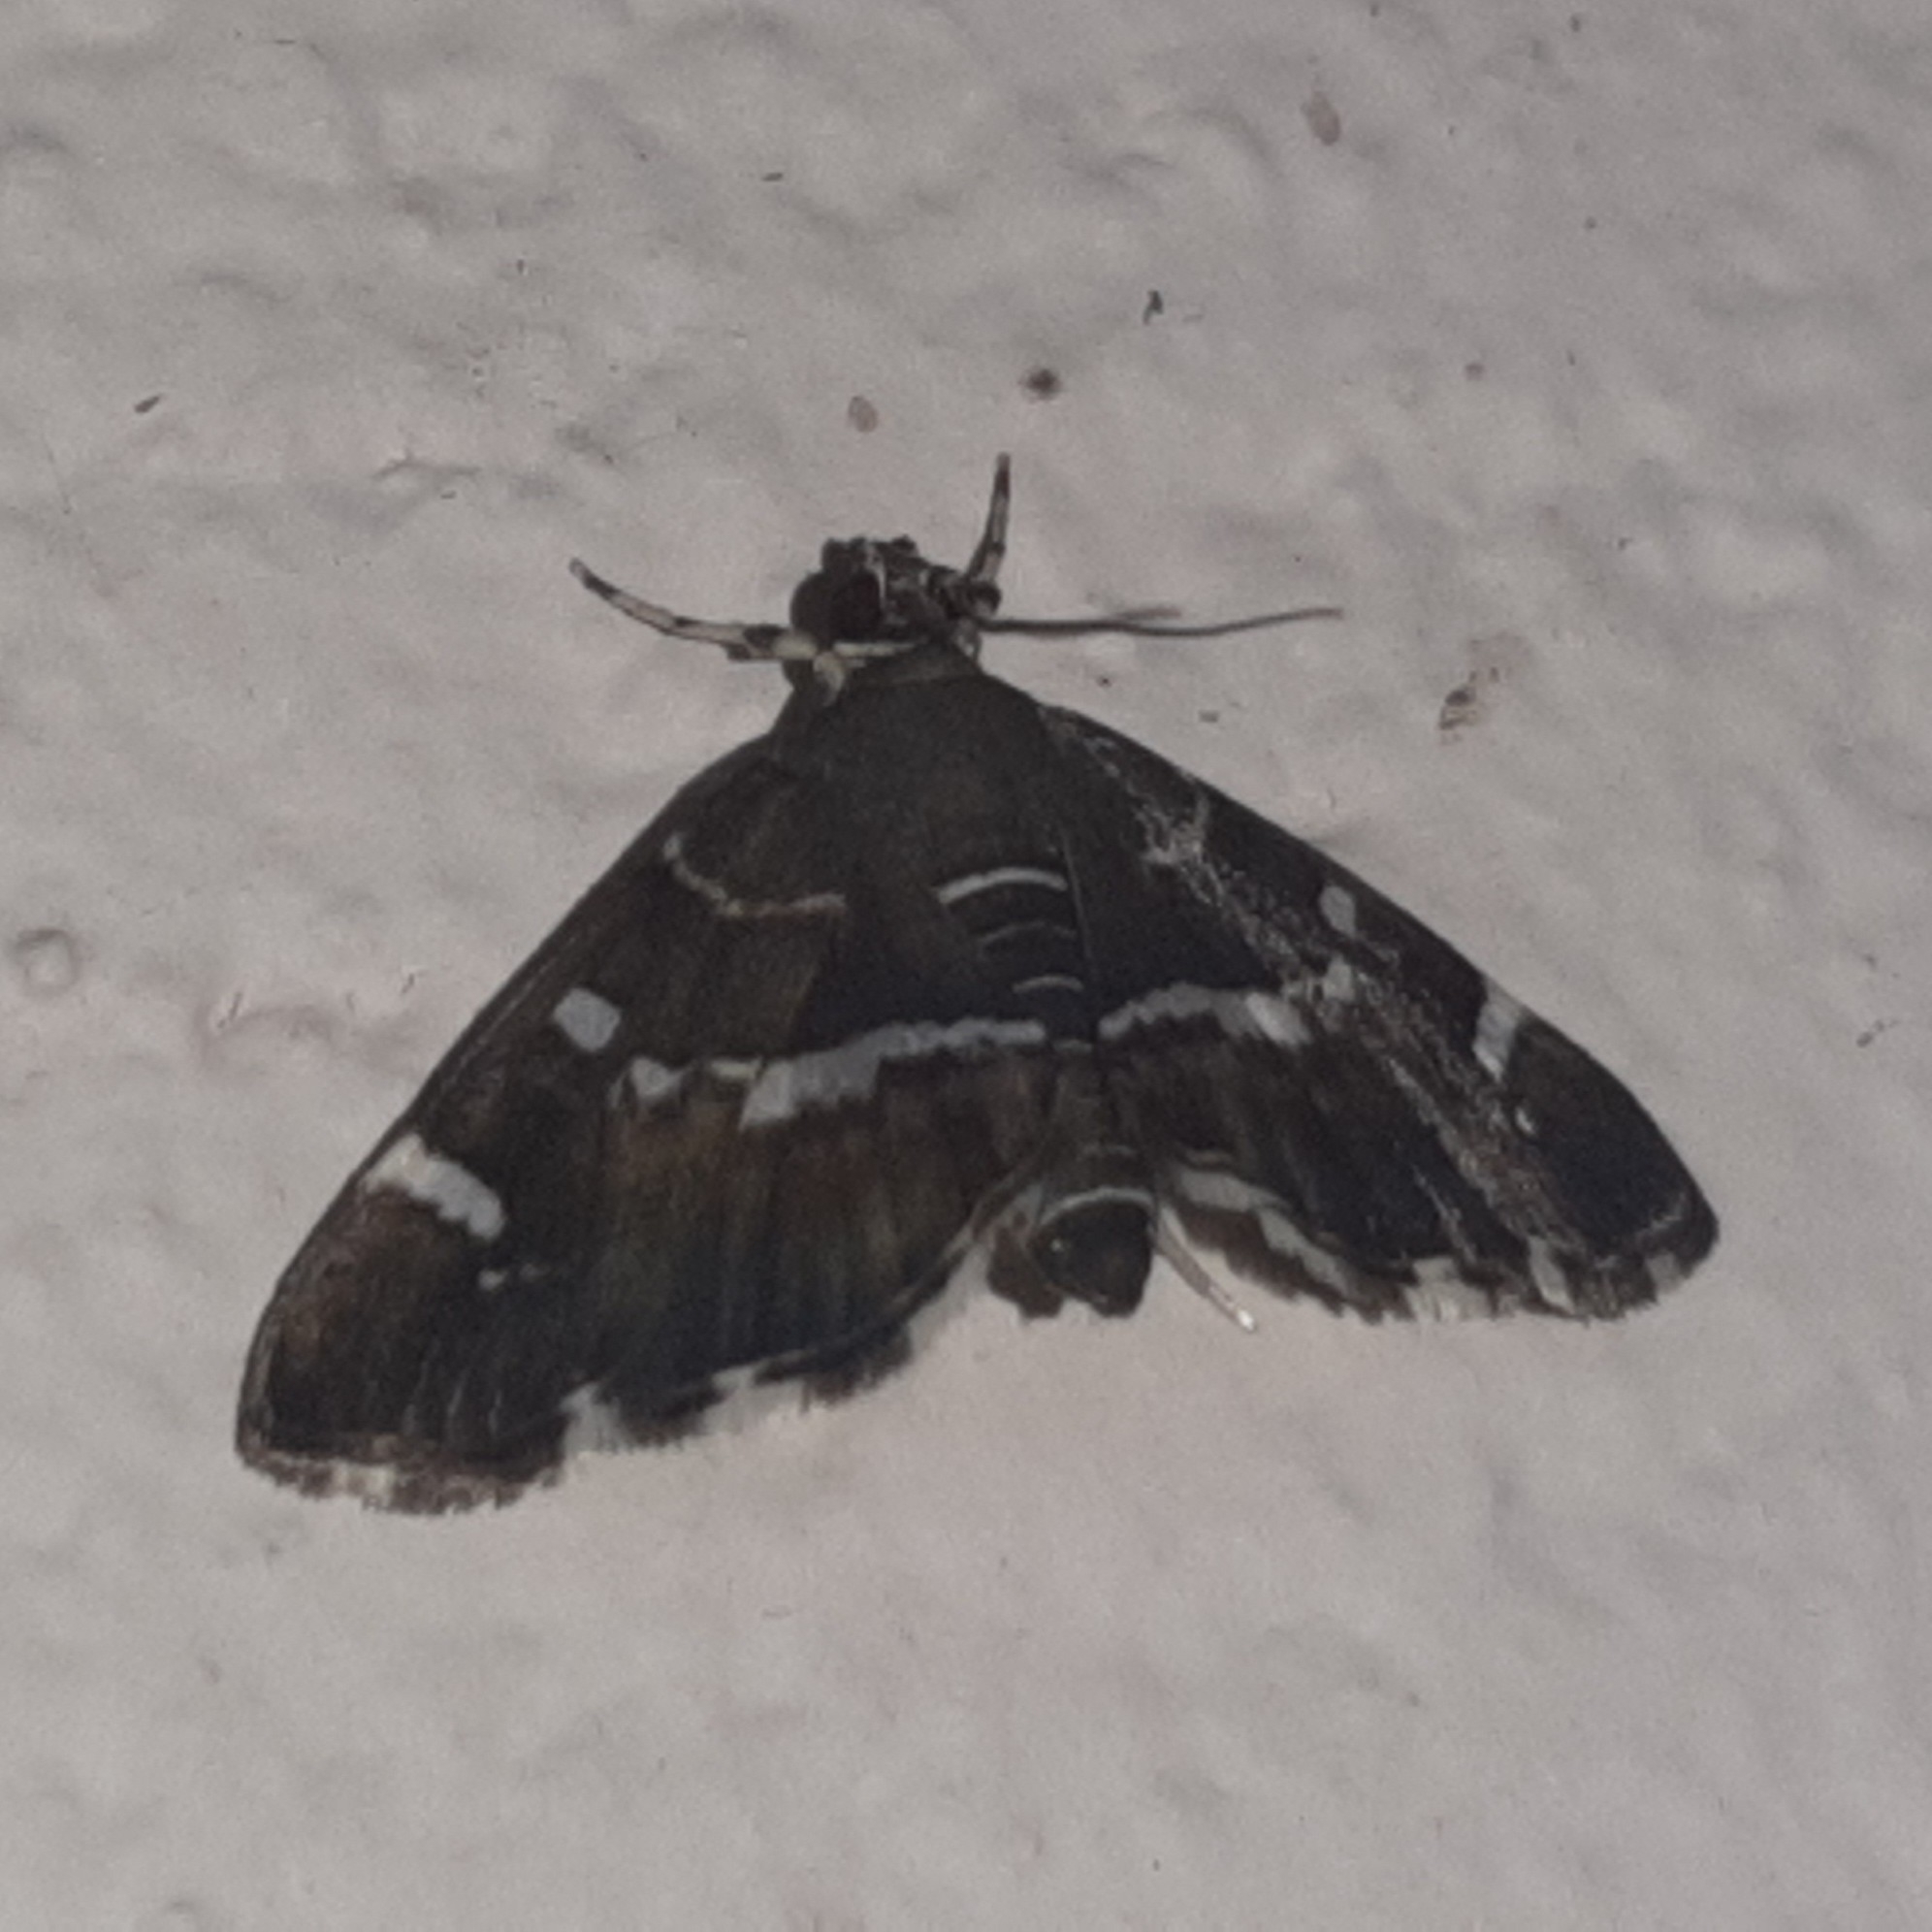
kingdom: Animalia
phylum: Arthropoda
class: Insecta
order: Lepidoptera
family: Crambidae
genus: Hymenia
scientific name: Hymenia perspectalis
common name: Spotted beet webworm
